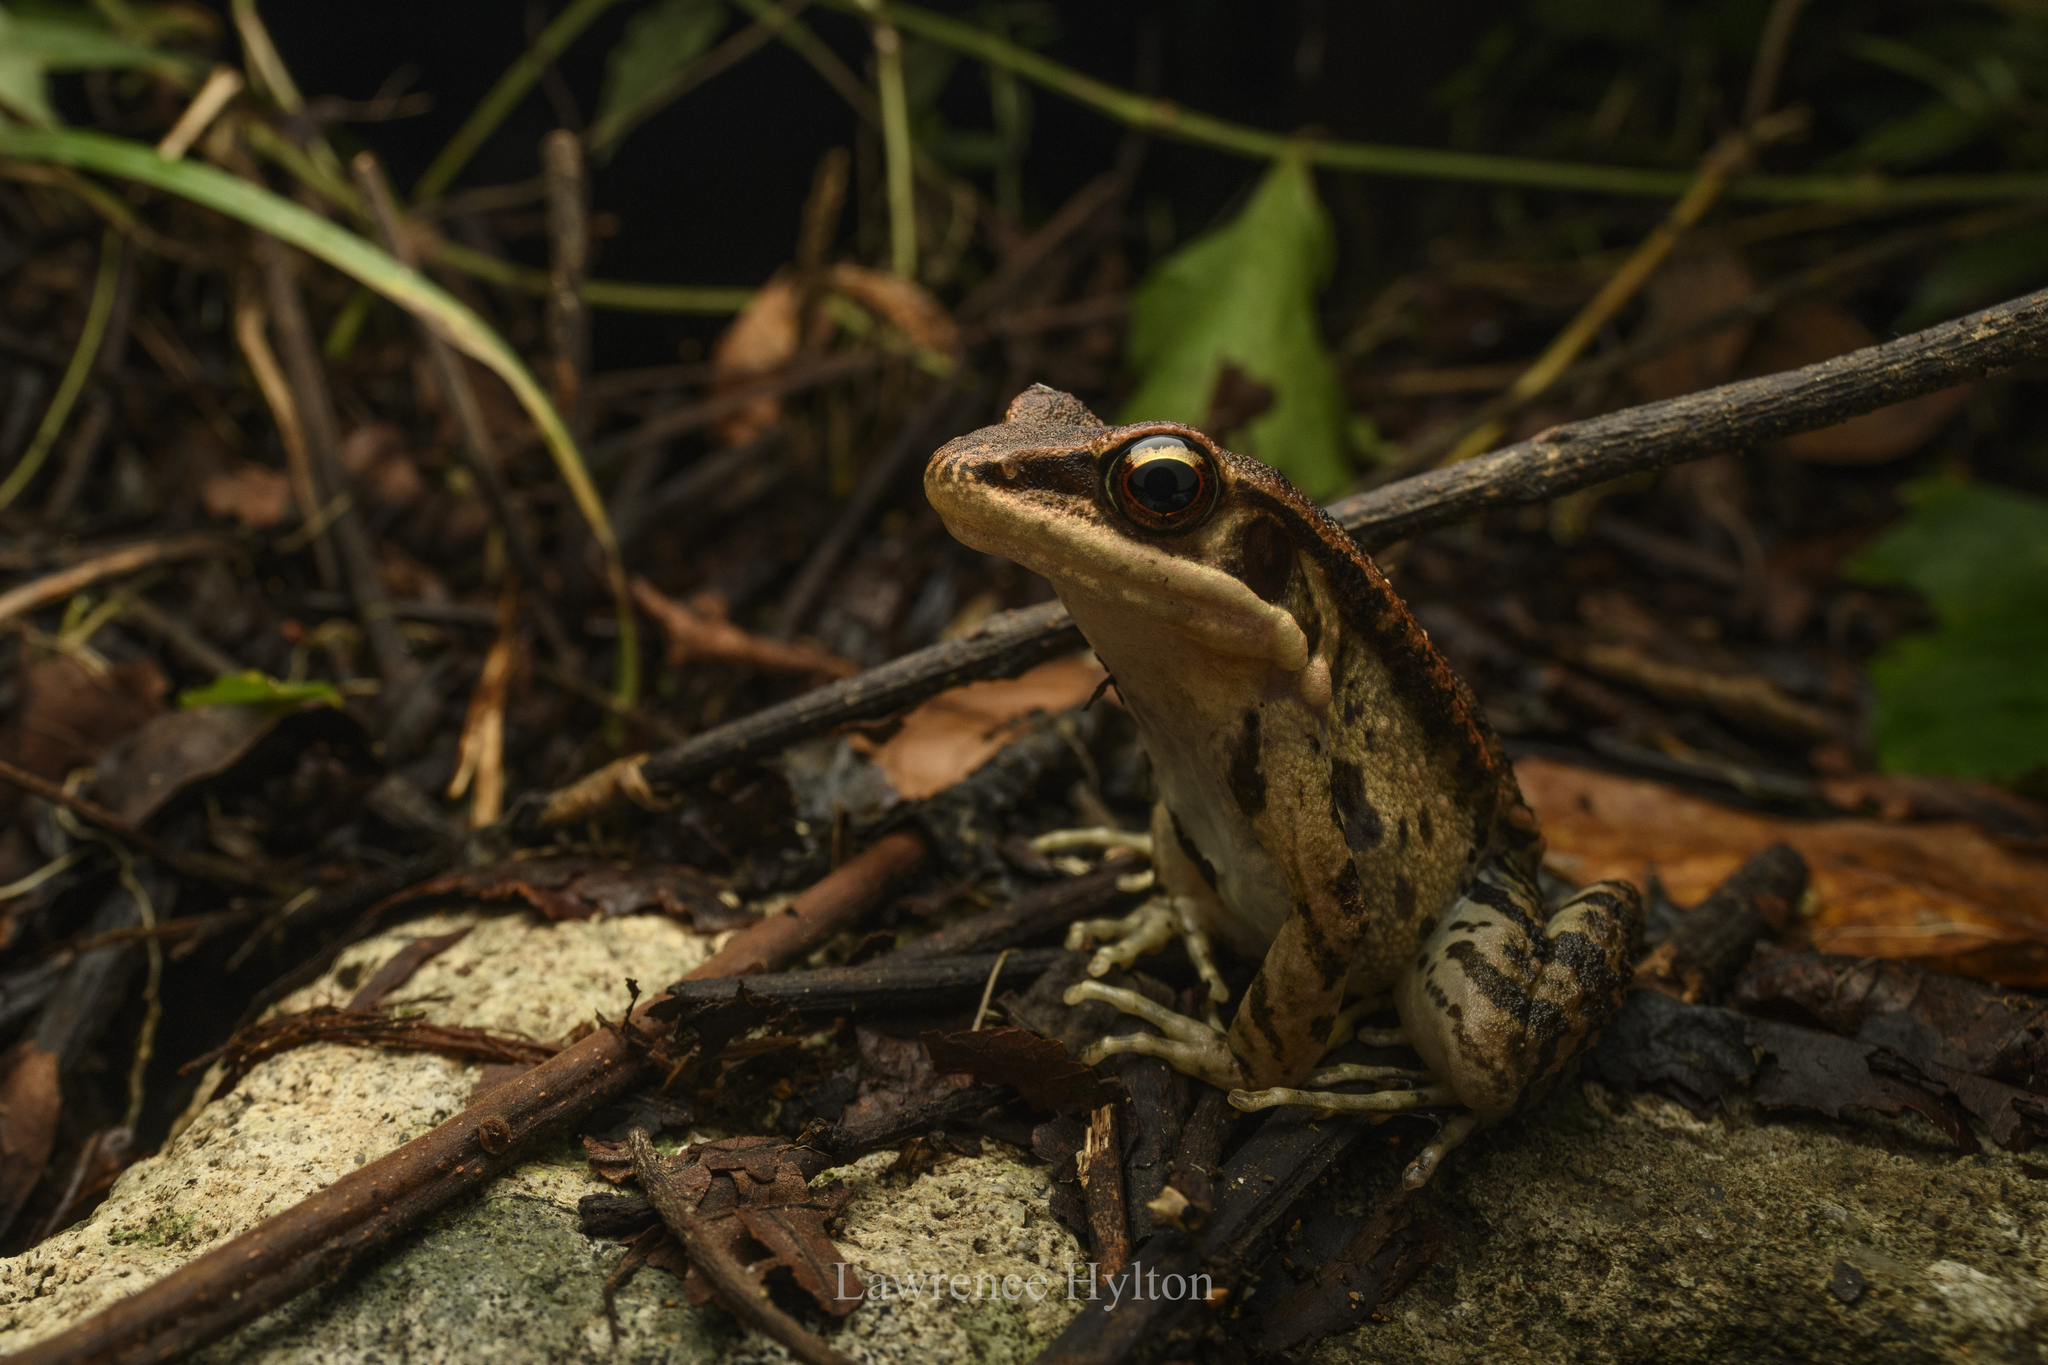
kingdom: Animalia
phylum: Chordata
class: Amphibia
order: Anura
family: Ranidae
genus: Hylarana
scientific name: Hylarana latouchii
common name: Broad-folded frog
